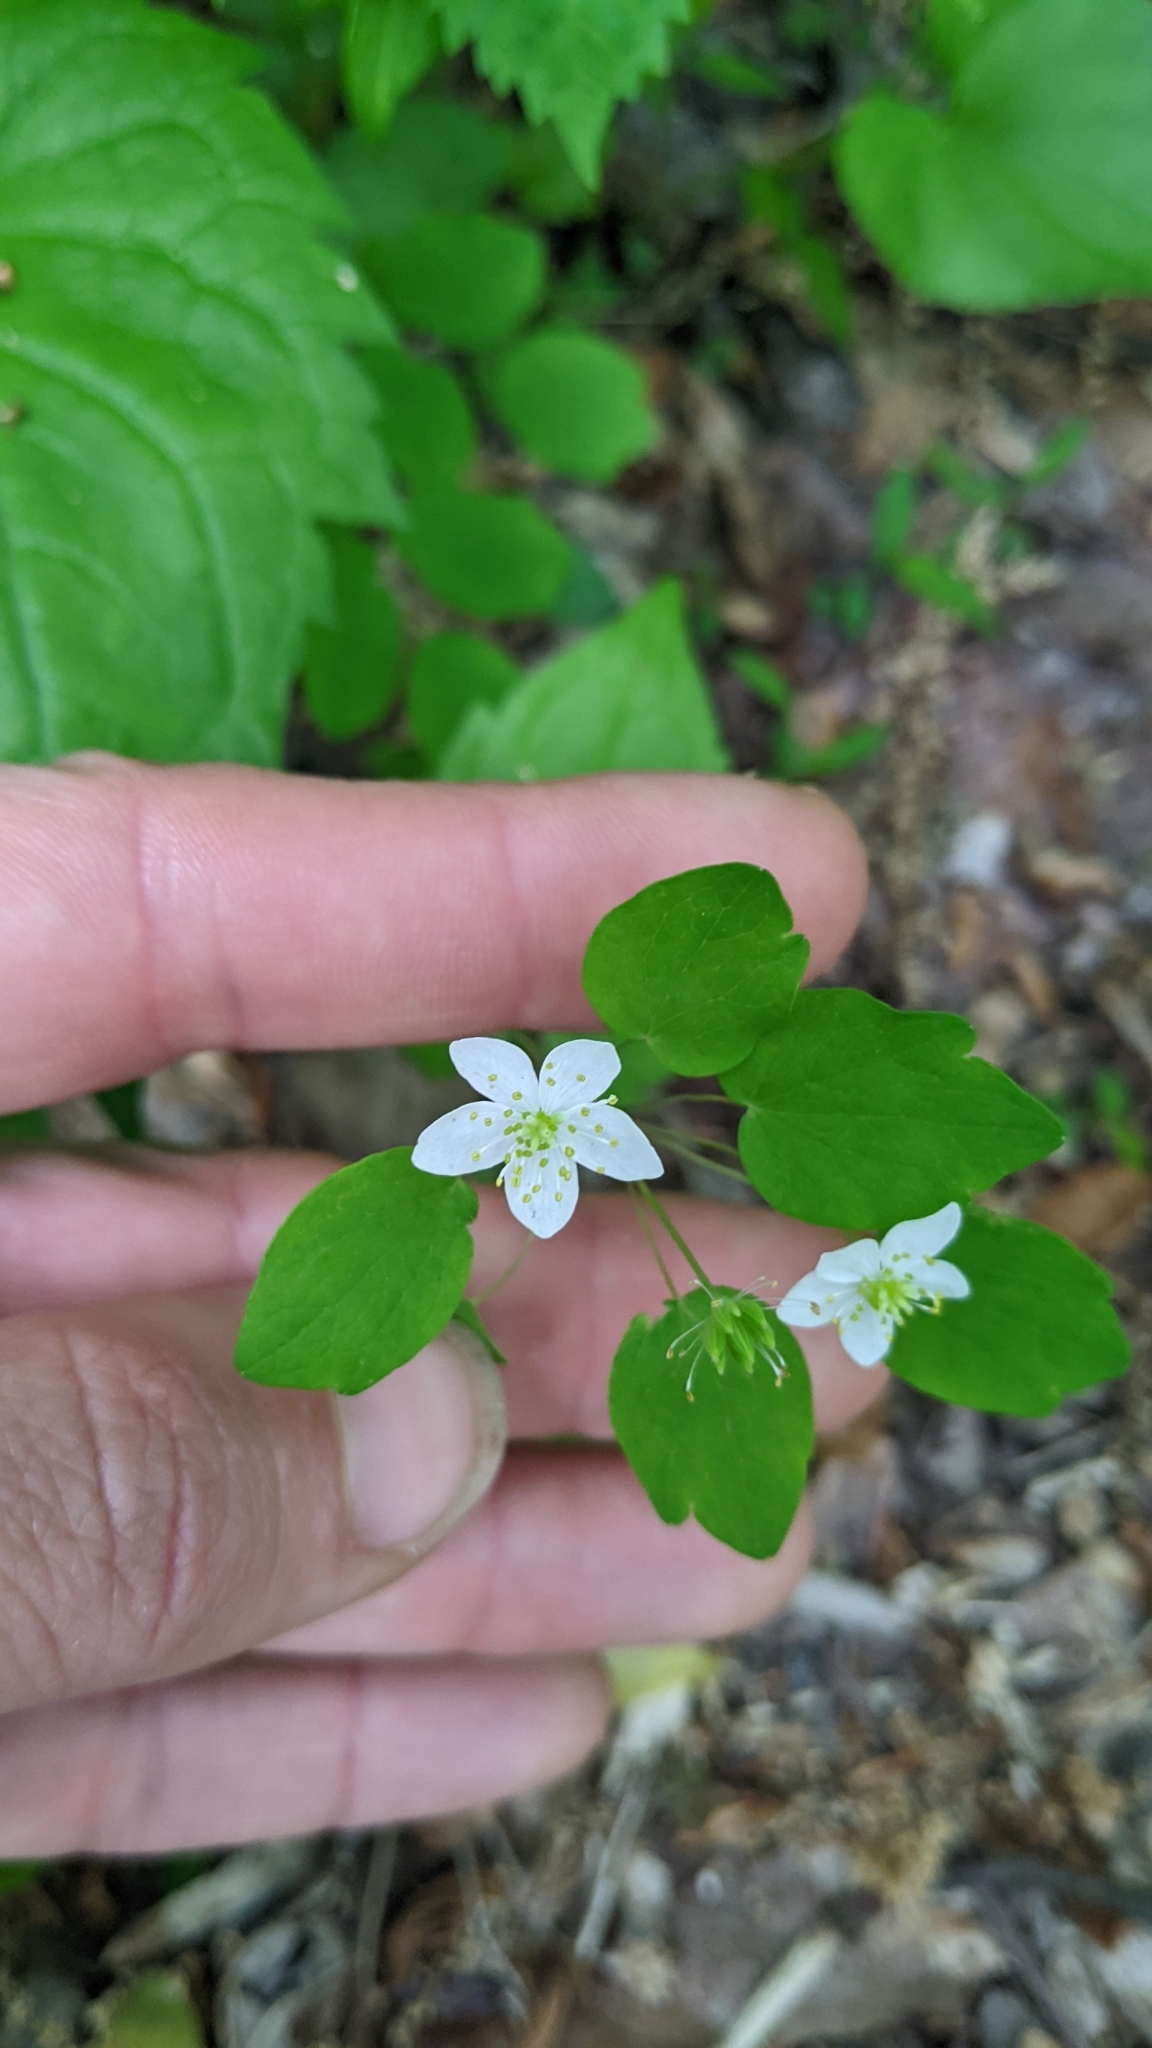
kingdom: Plantae
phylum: Tracheophyta
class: Magnoliopsida
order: Ranunculales
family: Ranunculaceae
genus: Thalictrum
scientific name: Thalictrum thalictroides
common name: Rue-anemone
